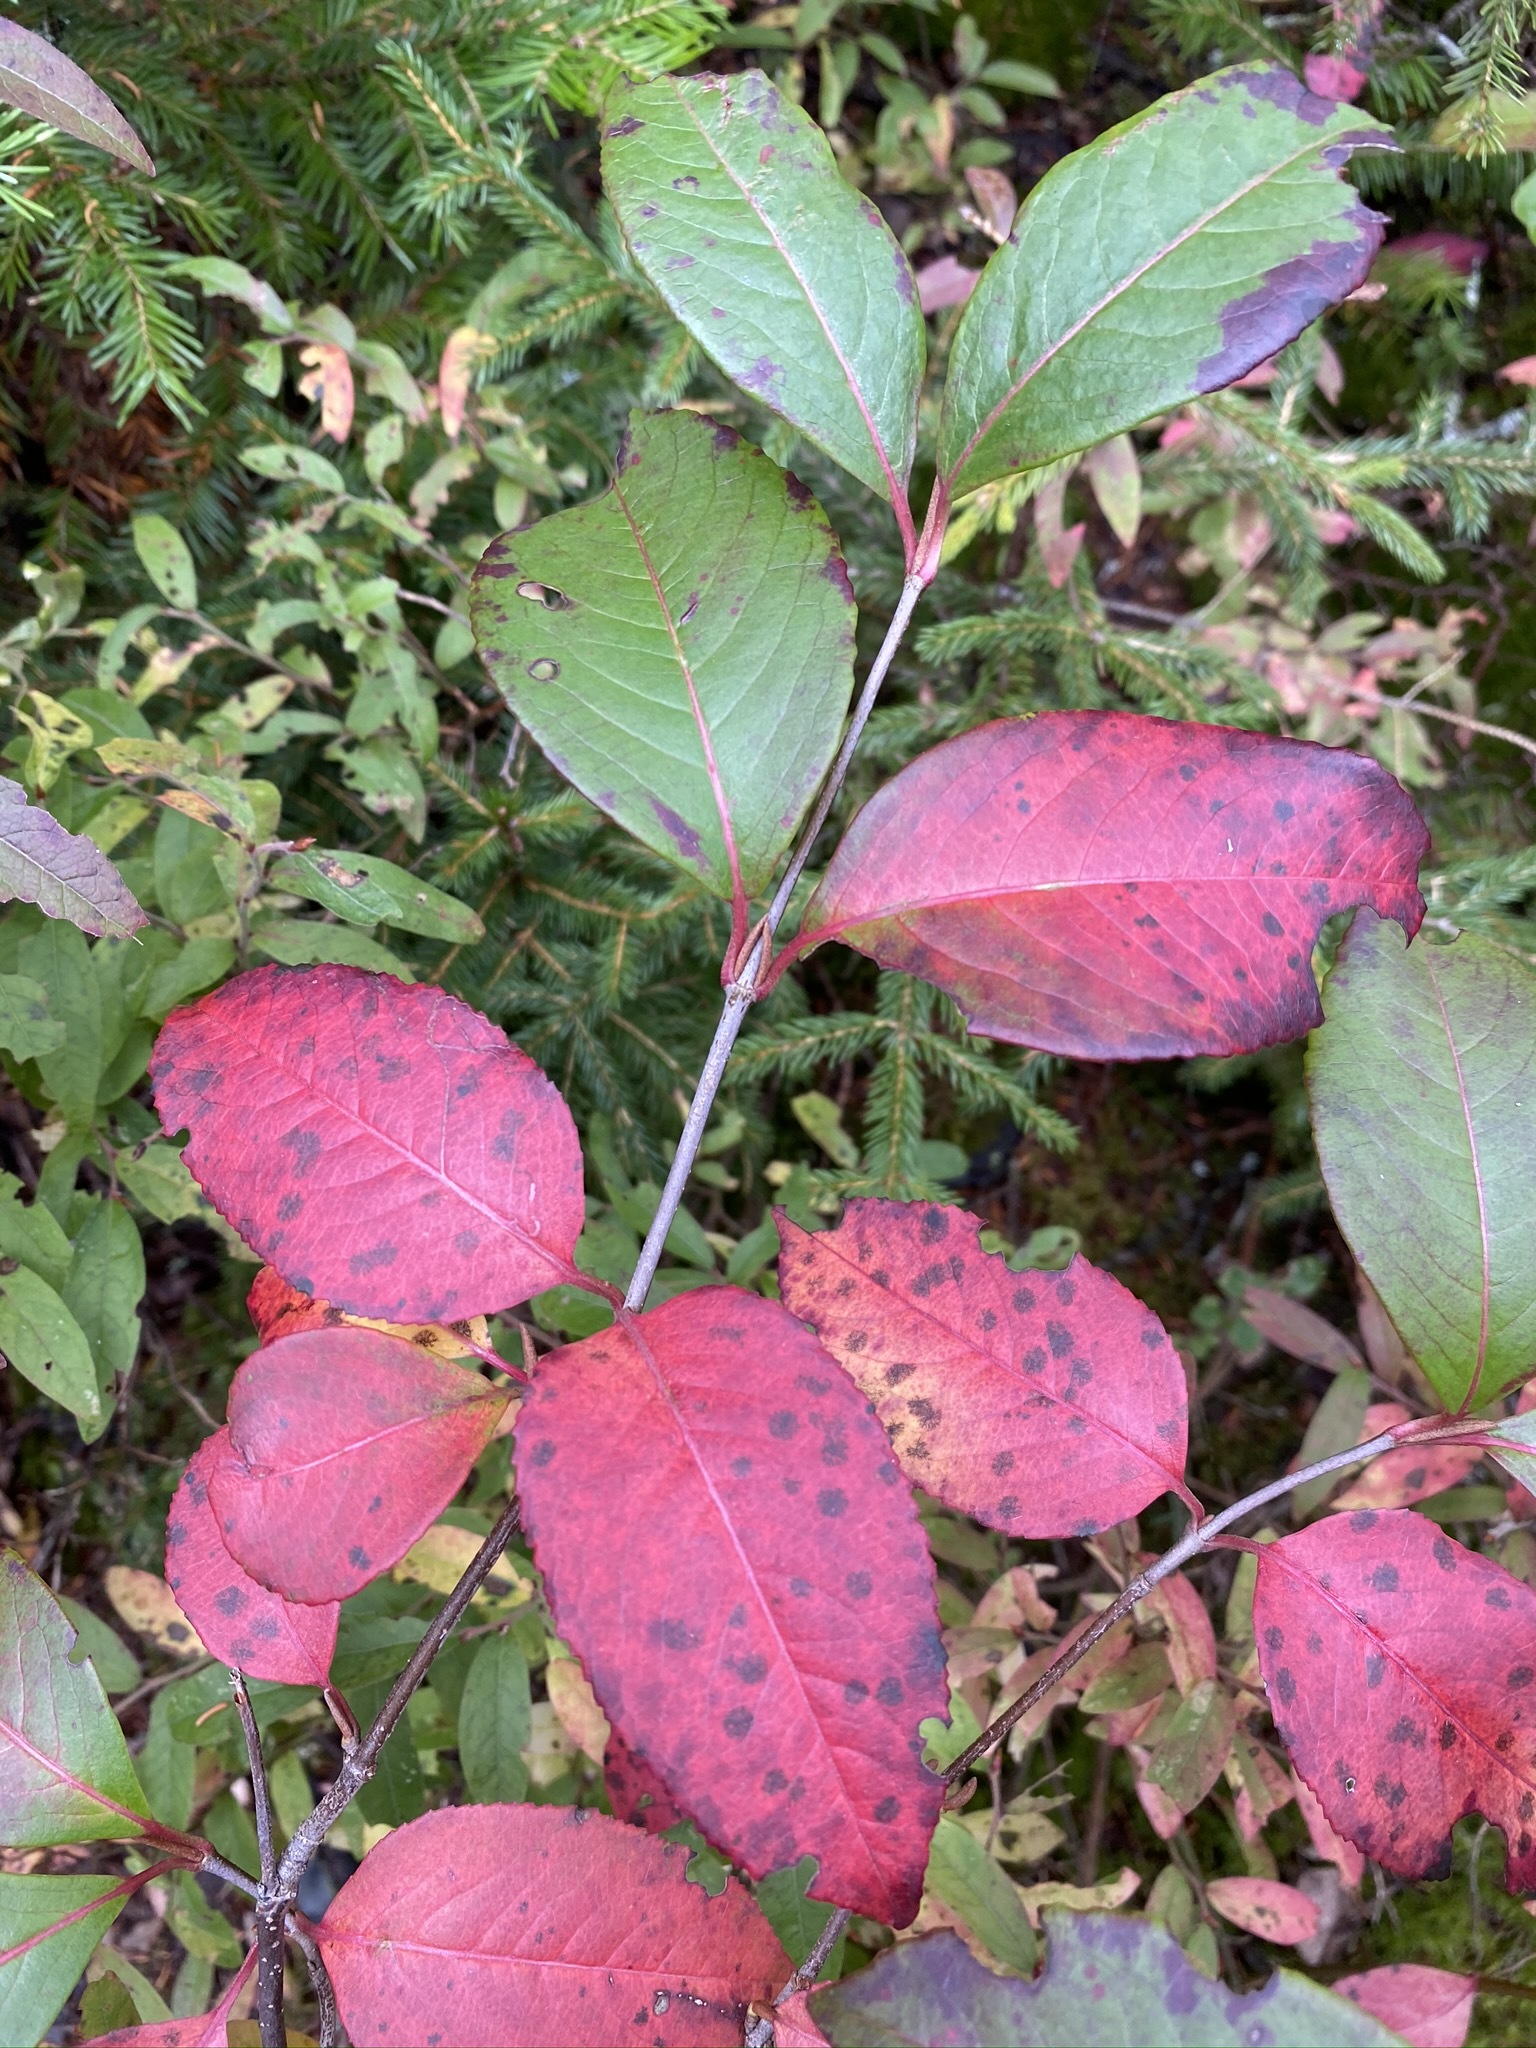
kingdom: Plantae
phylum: Tracheophyta
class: Magnoliopsida
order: Dipsacales
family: Viburnaceae
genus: Viburnum
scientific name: Viburnum cassinoides
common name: Swamp haw
